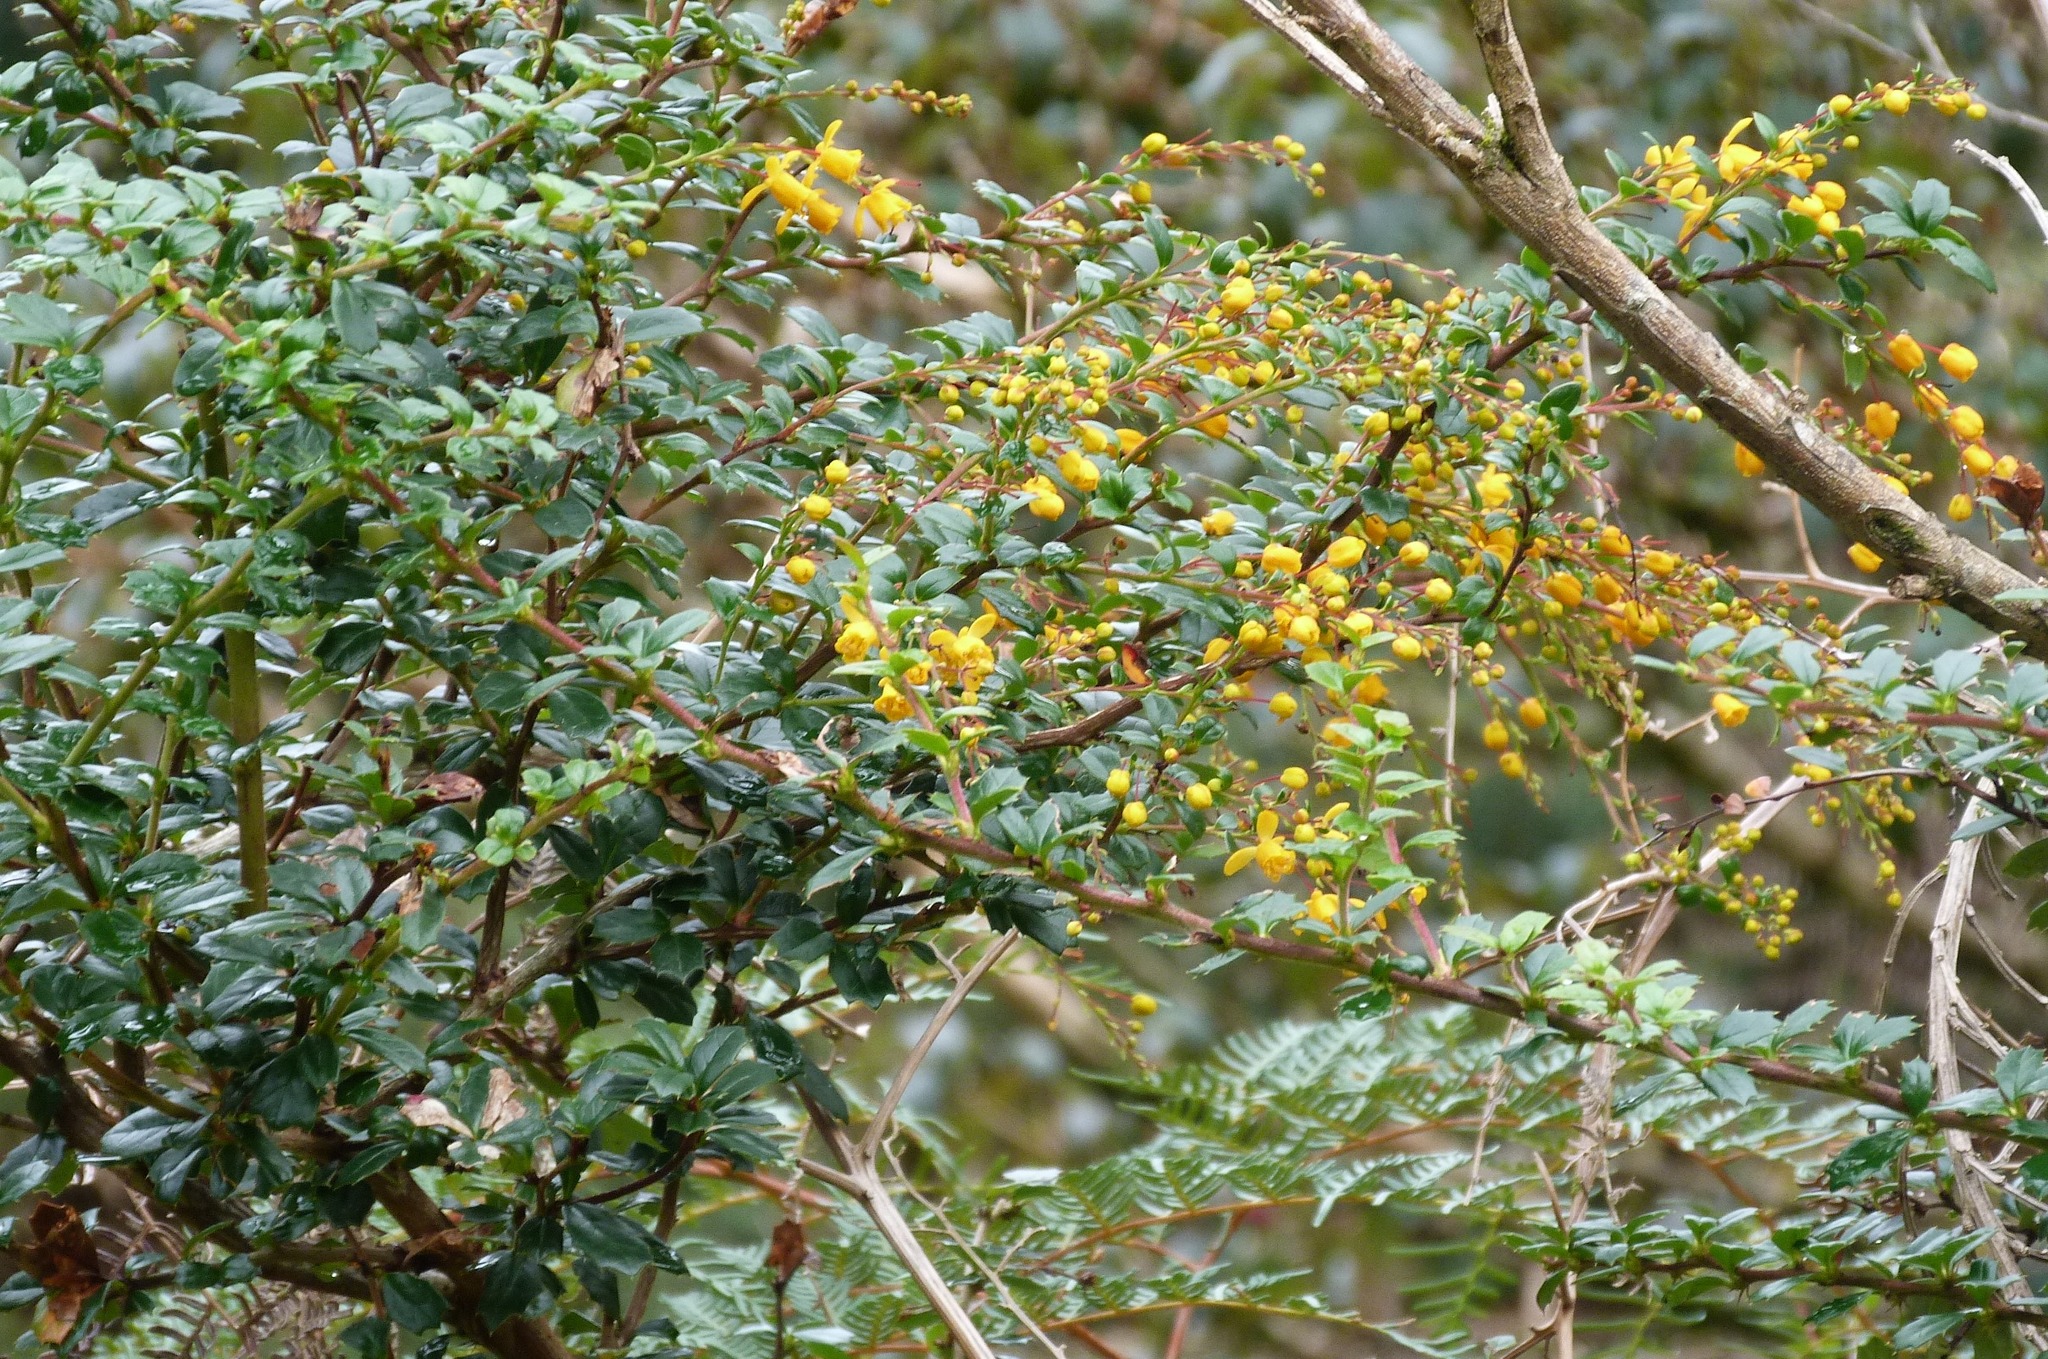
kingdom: Plantae
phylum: Tracheophyta
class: Magnoliopsida
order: Ranunculales
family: Berberidaceae
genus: Berberis
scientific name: Berberis darwinii
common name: Darwin's barberry
